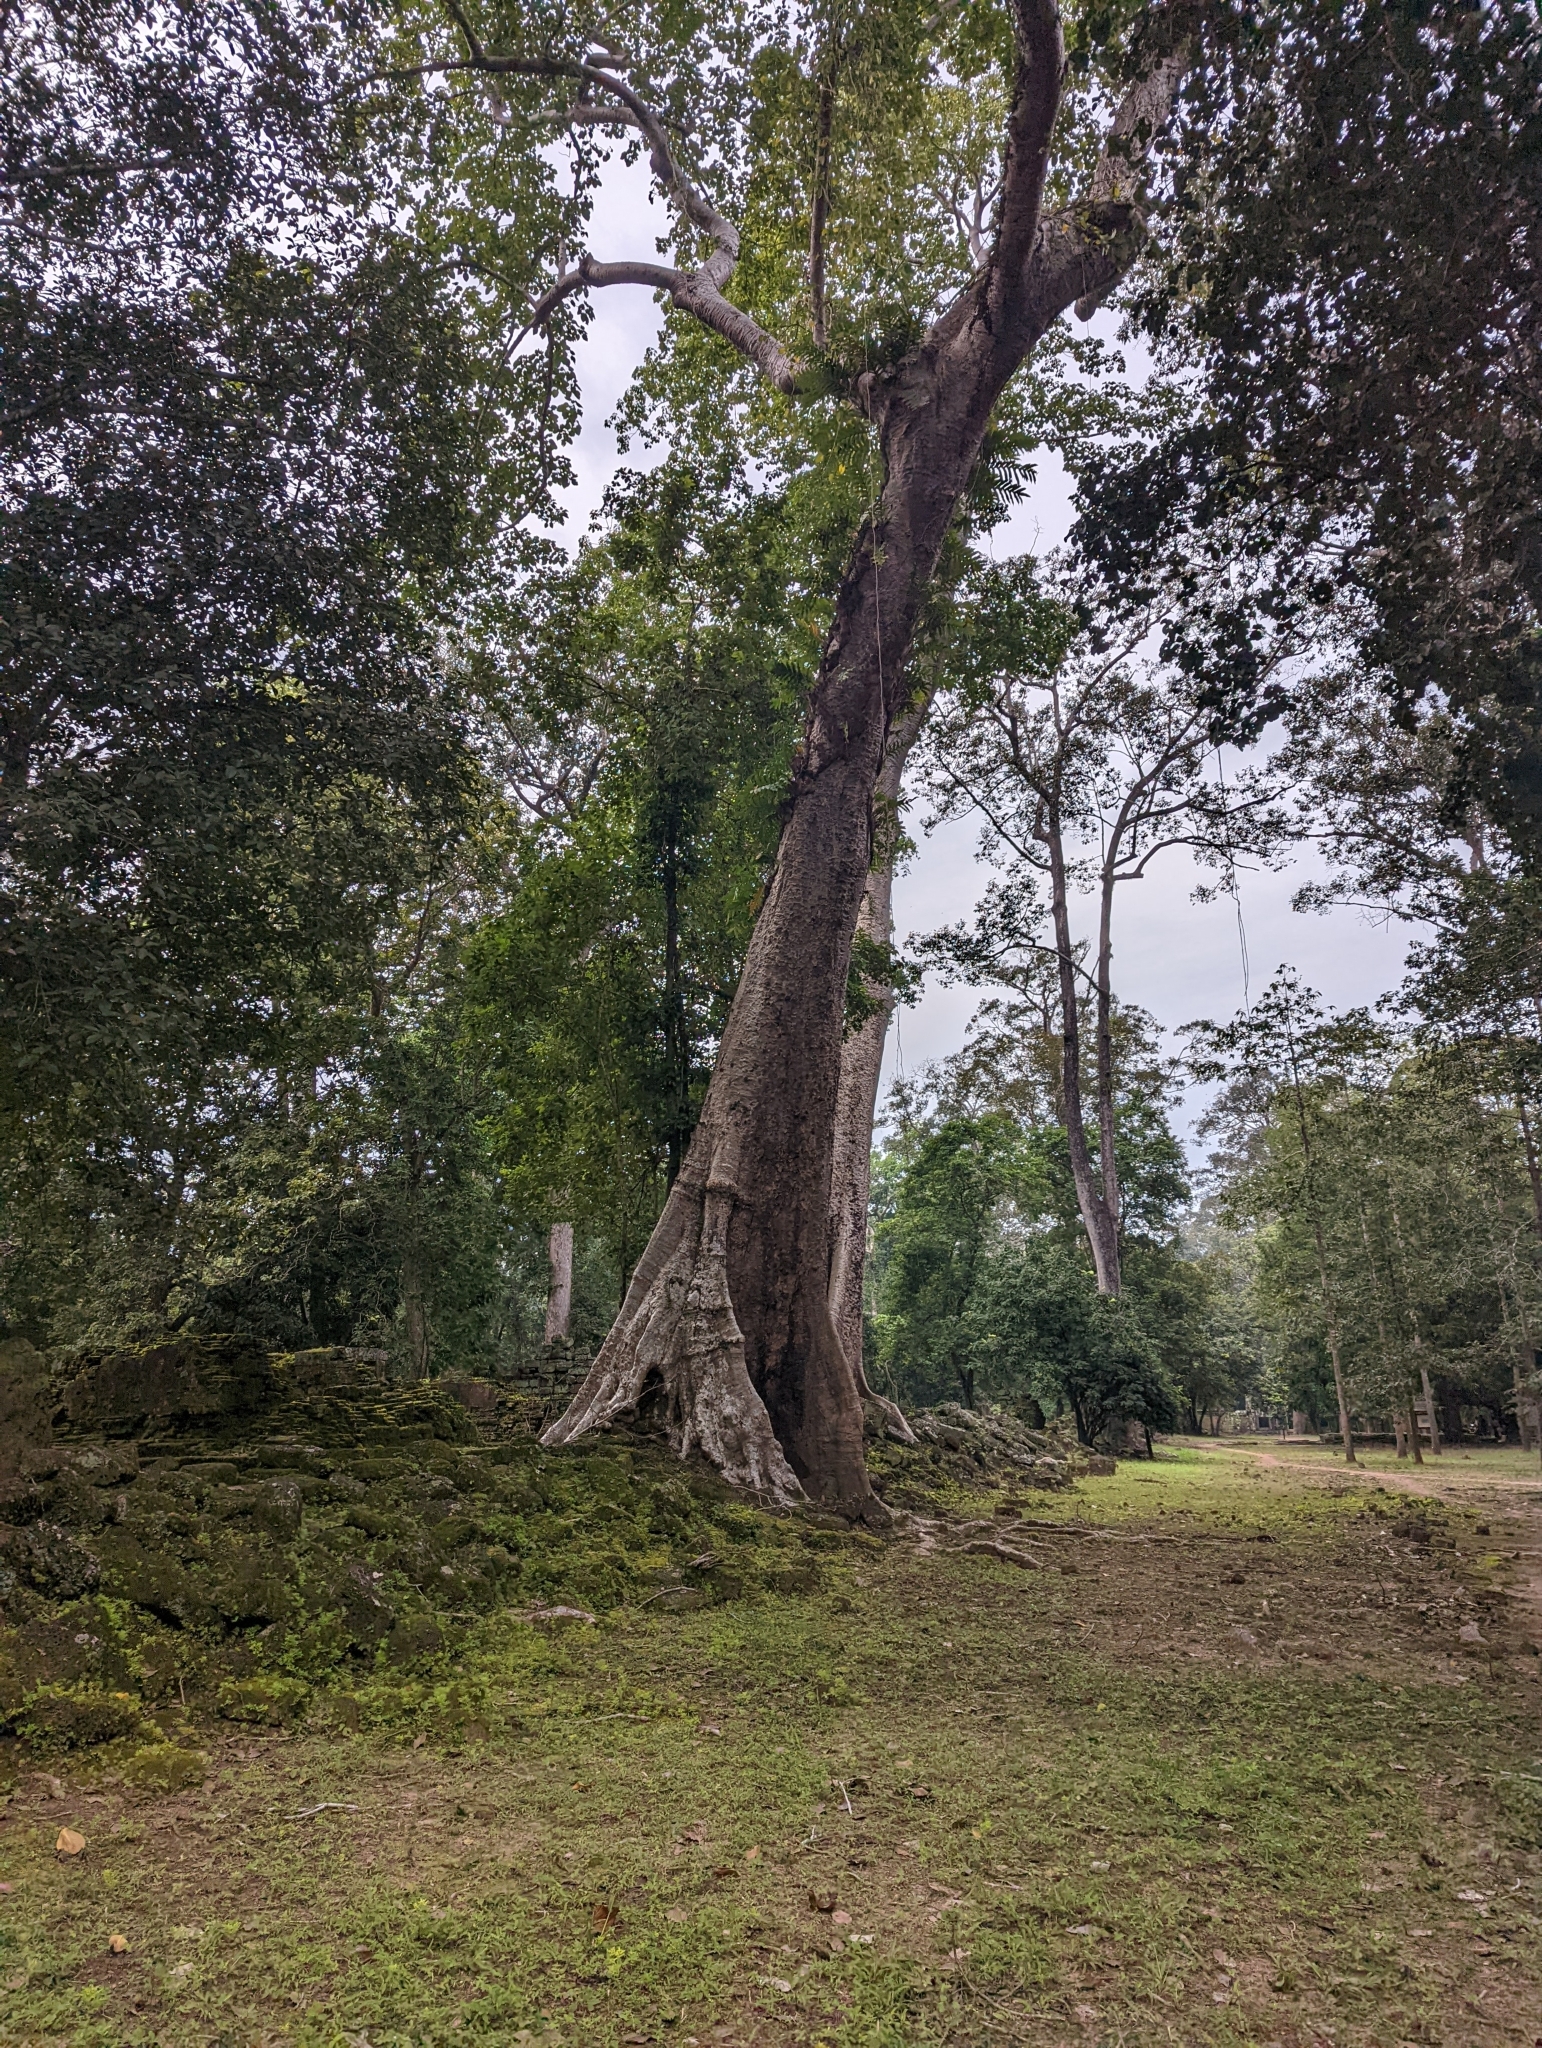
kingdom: Plantae
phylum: Tracheophyta
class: Magnoliopsida
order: Cucurbitales
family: Tetramelaceae
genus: Tetrameles
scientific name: Tetrameles nudiflora
